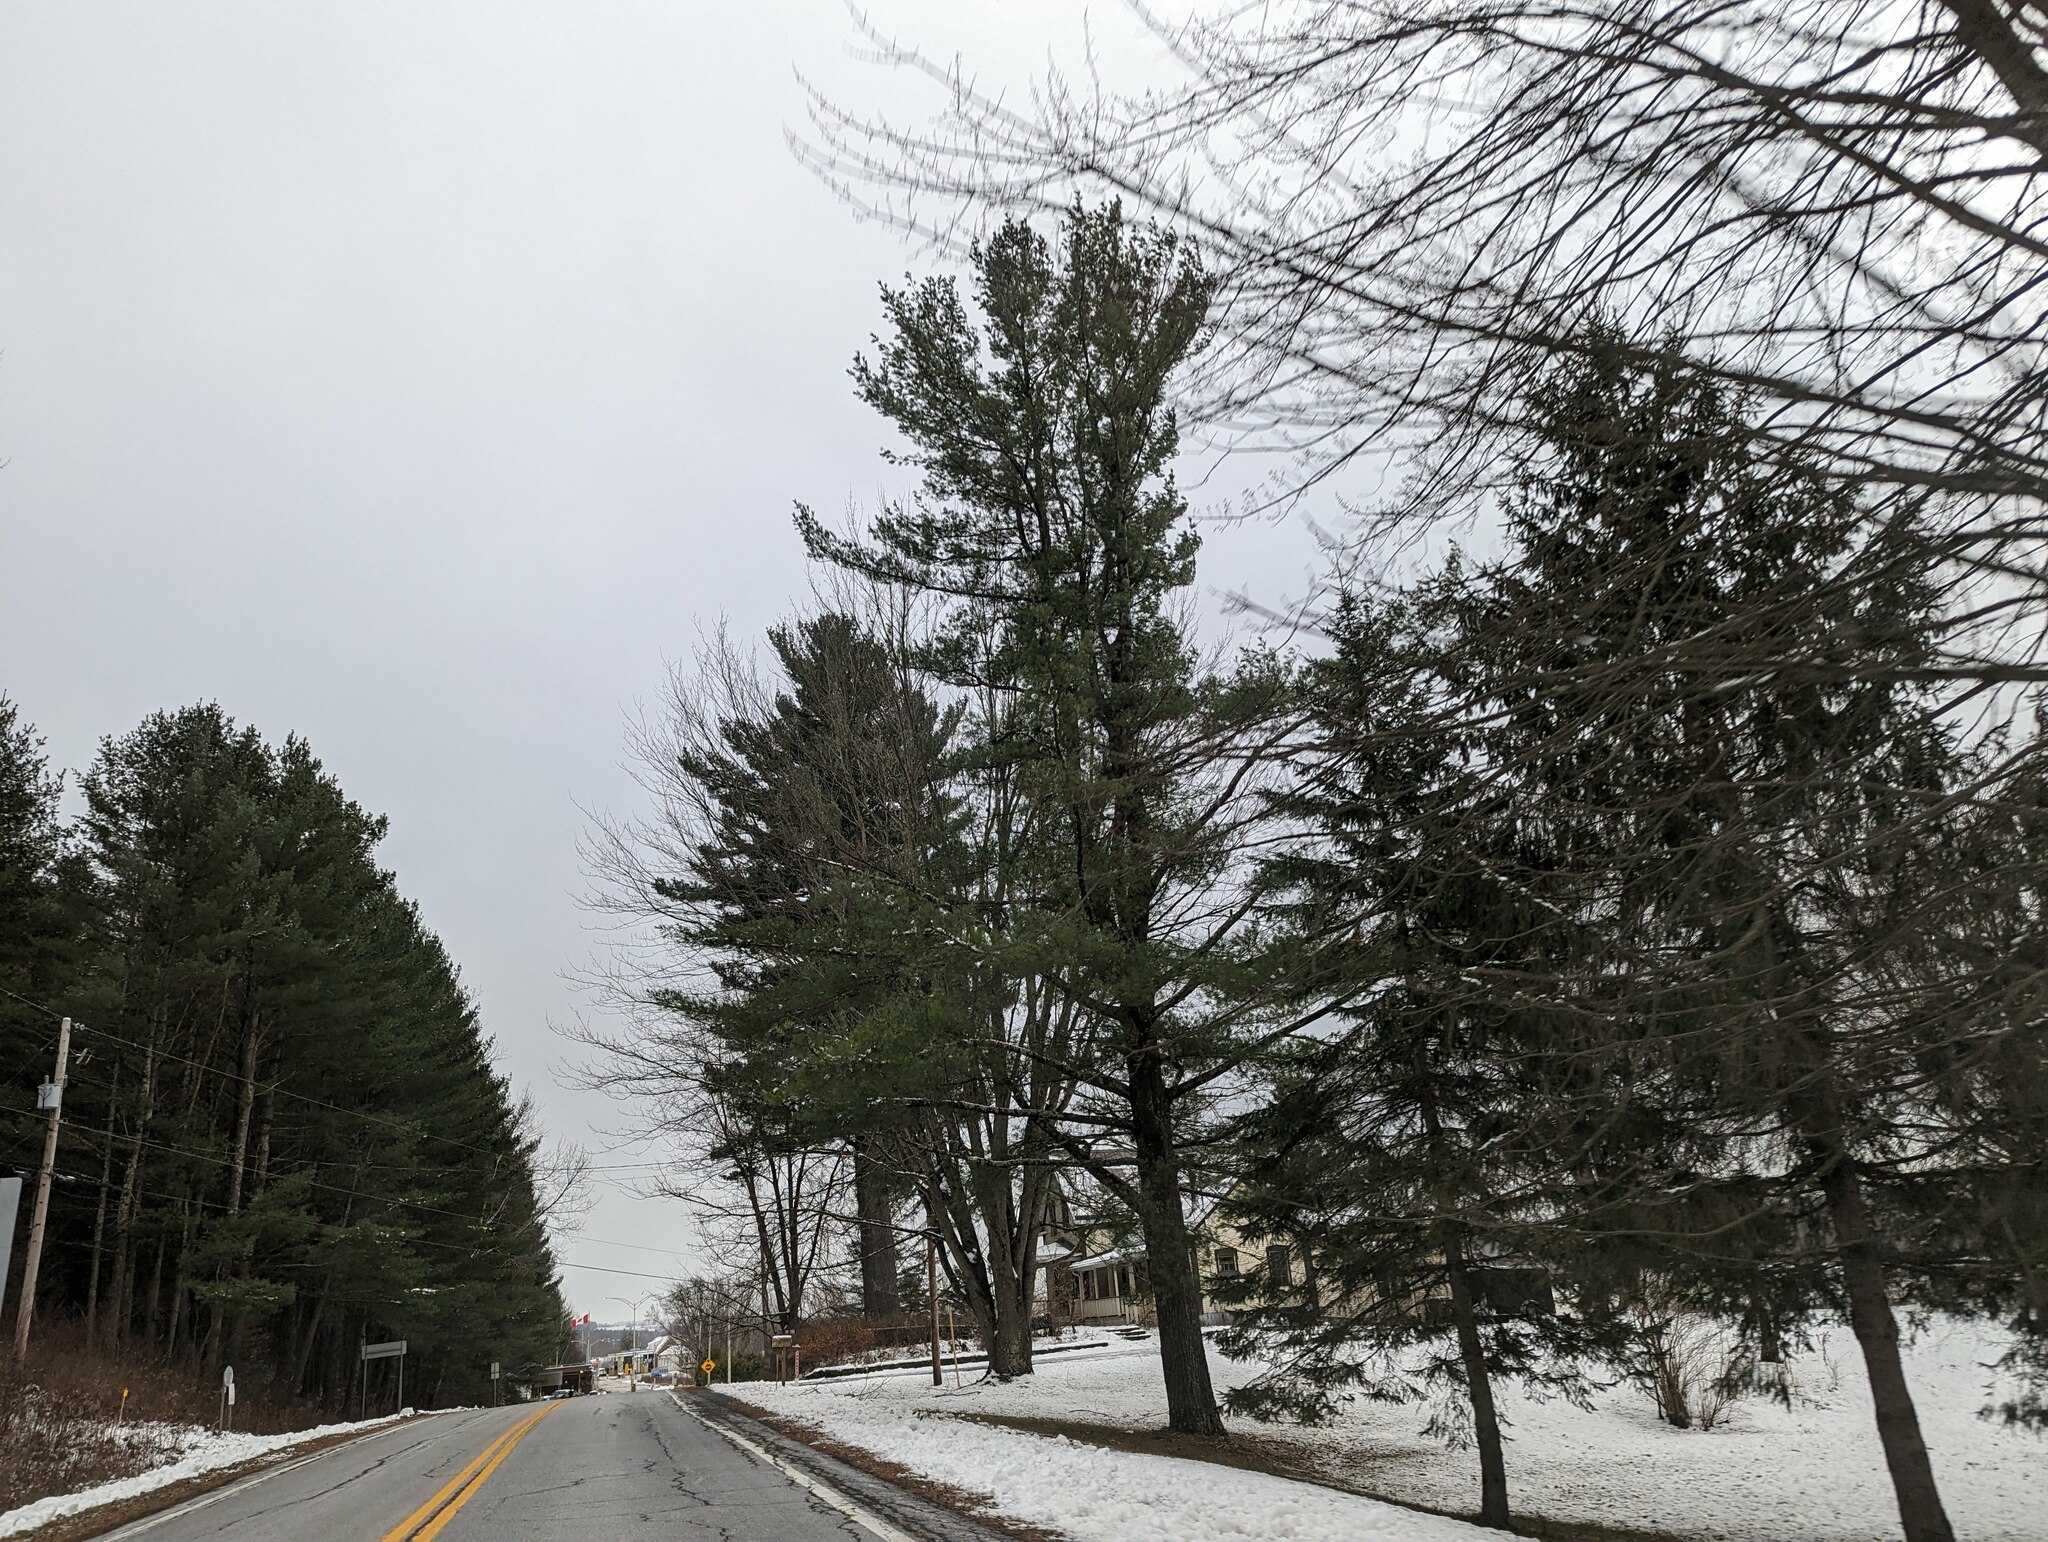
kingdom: Plantae
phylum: Tracheophyta
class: Pinopsida
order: Pinales
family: Pinaceae
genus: Pinus
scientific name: Pinus strobus
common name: Weymouth pine
